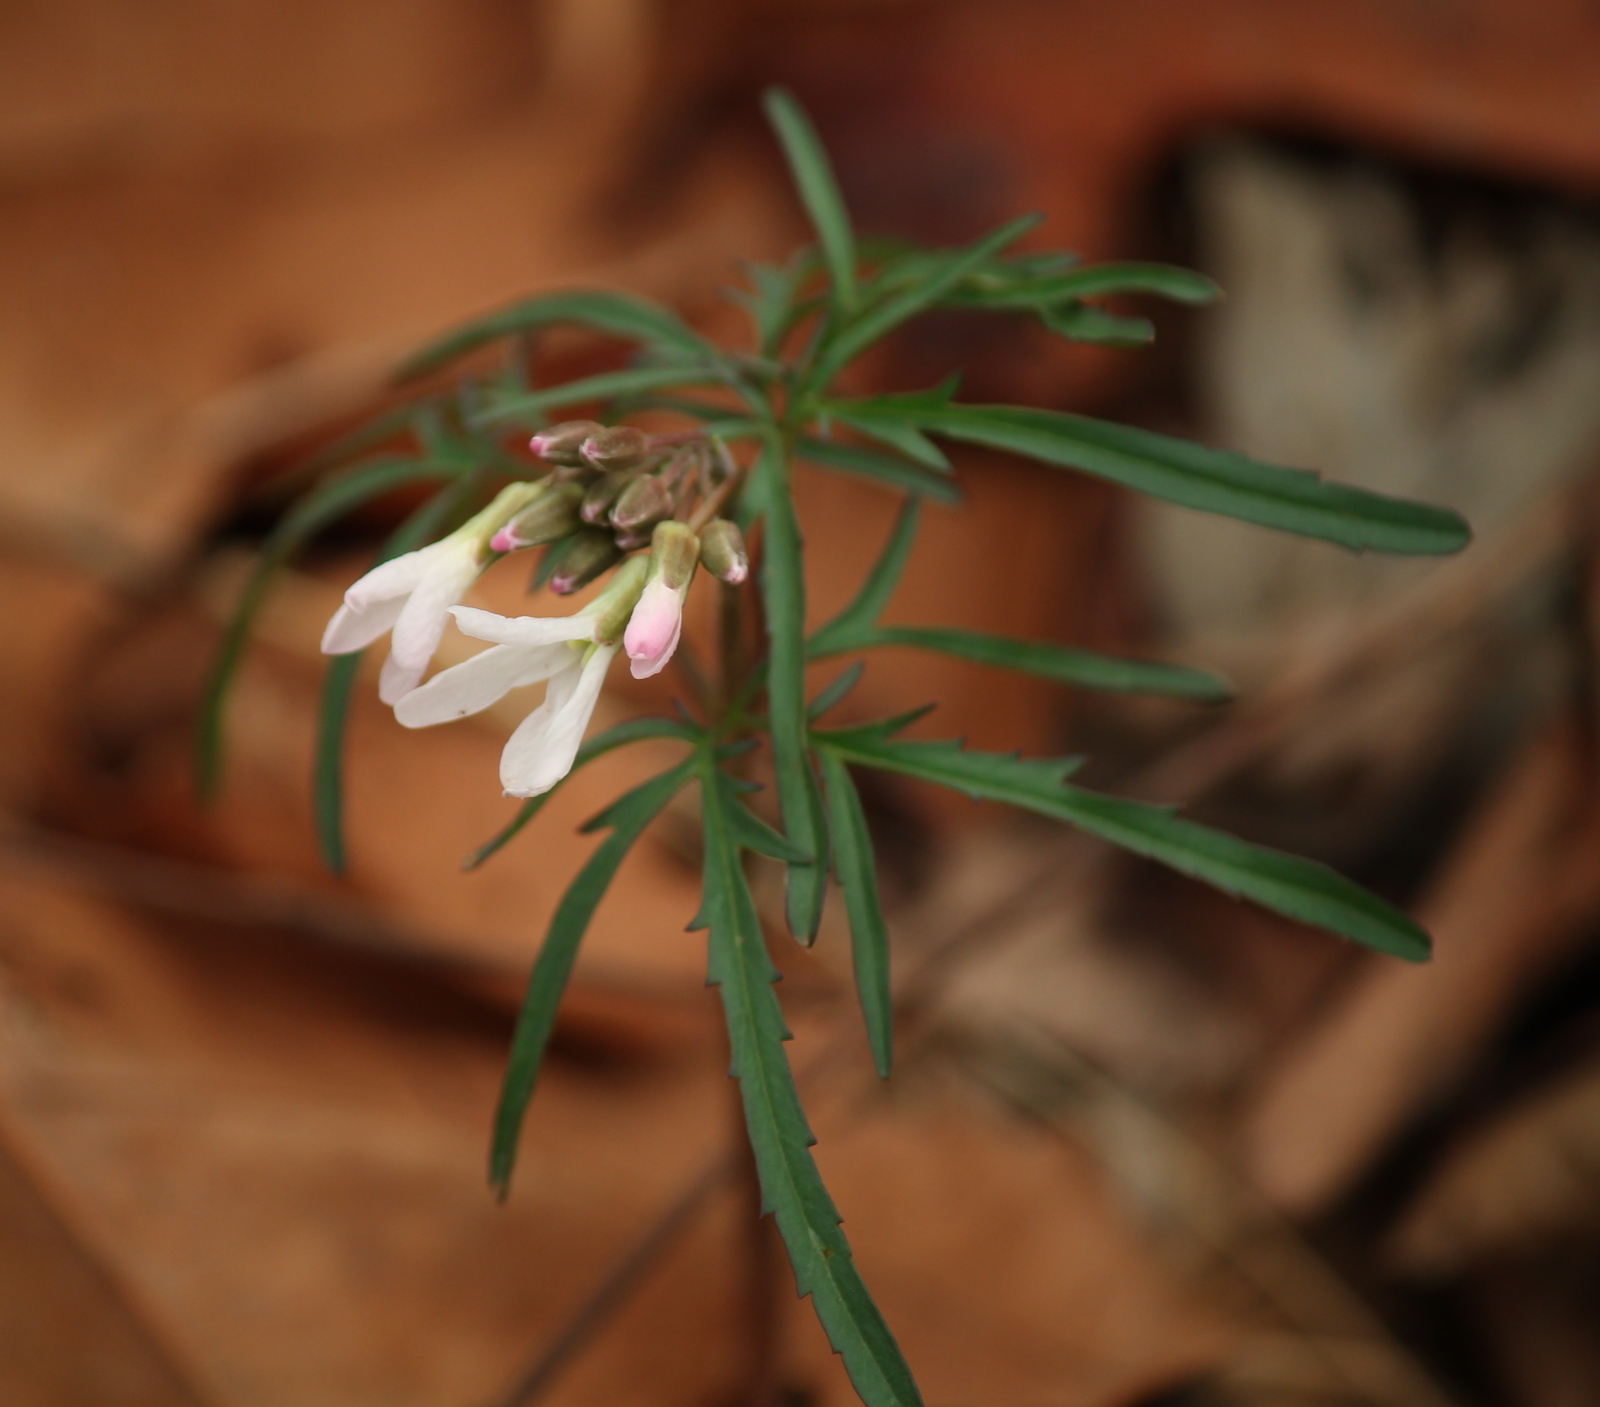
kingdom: Plantae
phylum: Tracheophyta
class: Magnoliopsida
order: Brassicales
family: Brassicaceae
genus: Cardamine
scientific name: Cardamine concatenata
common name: Cut-leaf toothcup
